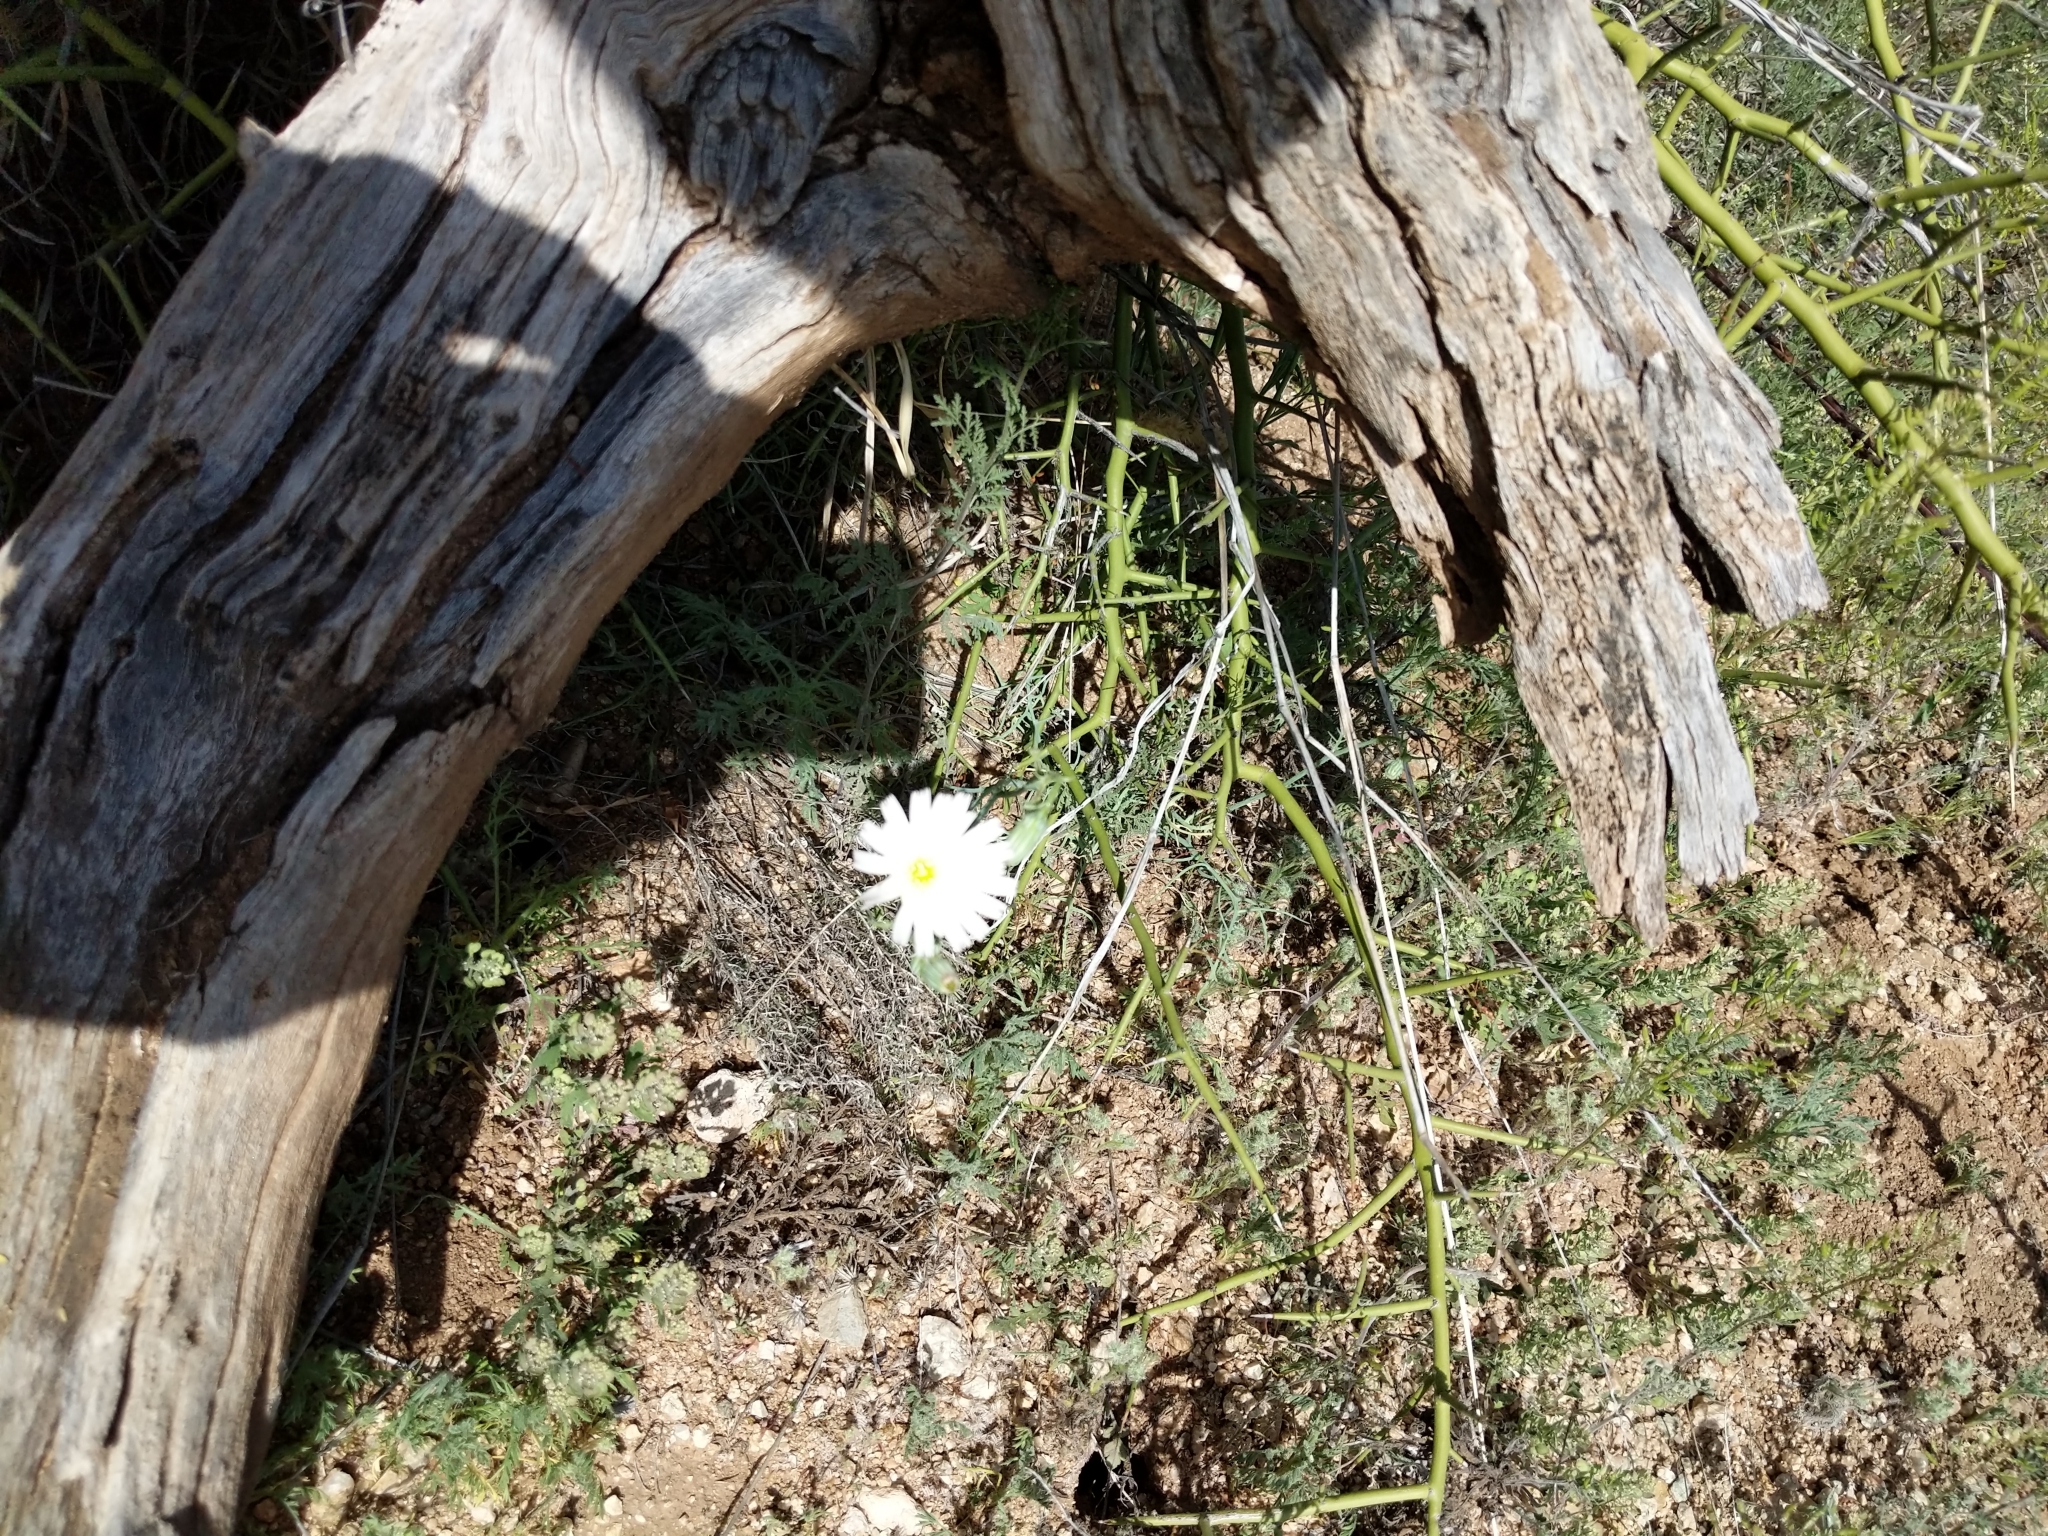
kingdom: Plantae
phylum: Tracheophyta
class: Magnoliopsida
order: Asterales
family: Asteraceae
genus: Rafinesquia
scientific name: Rafinesquia neomexicana
